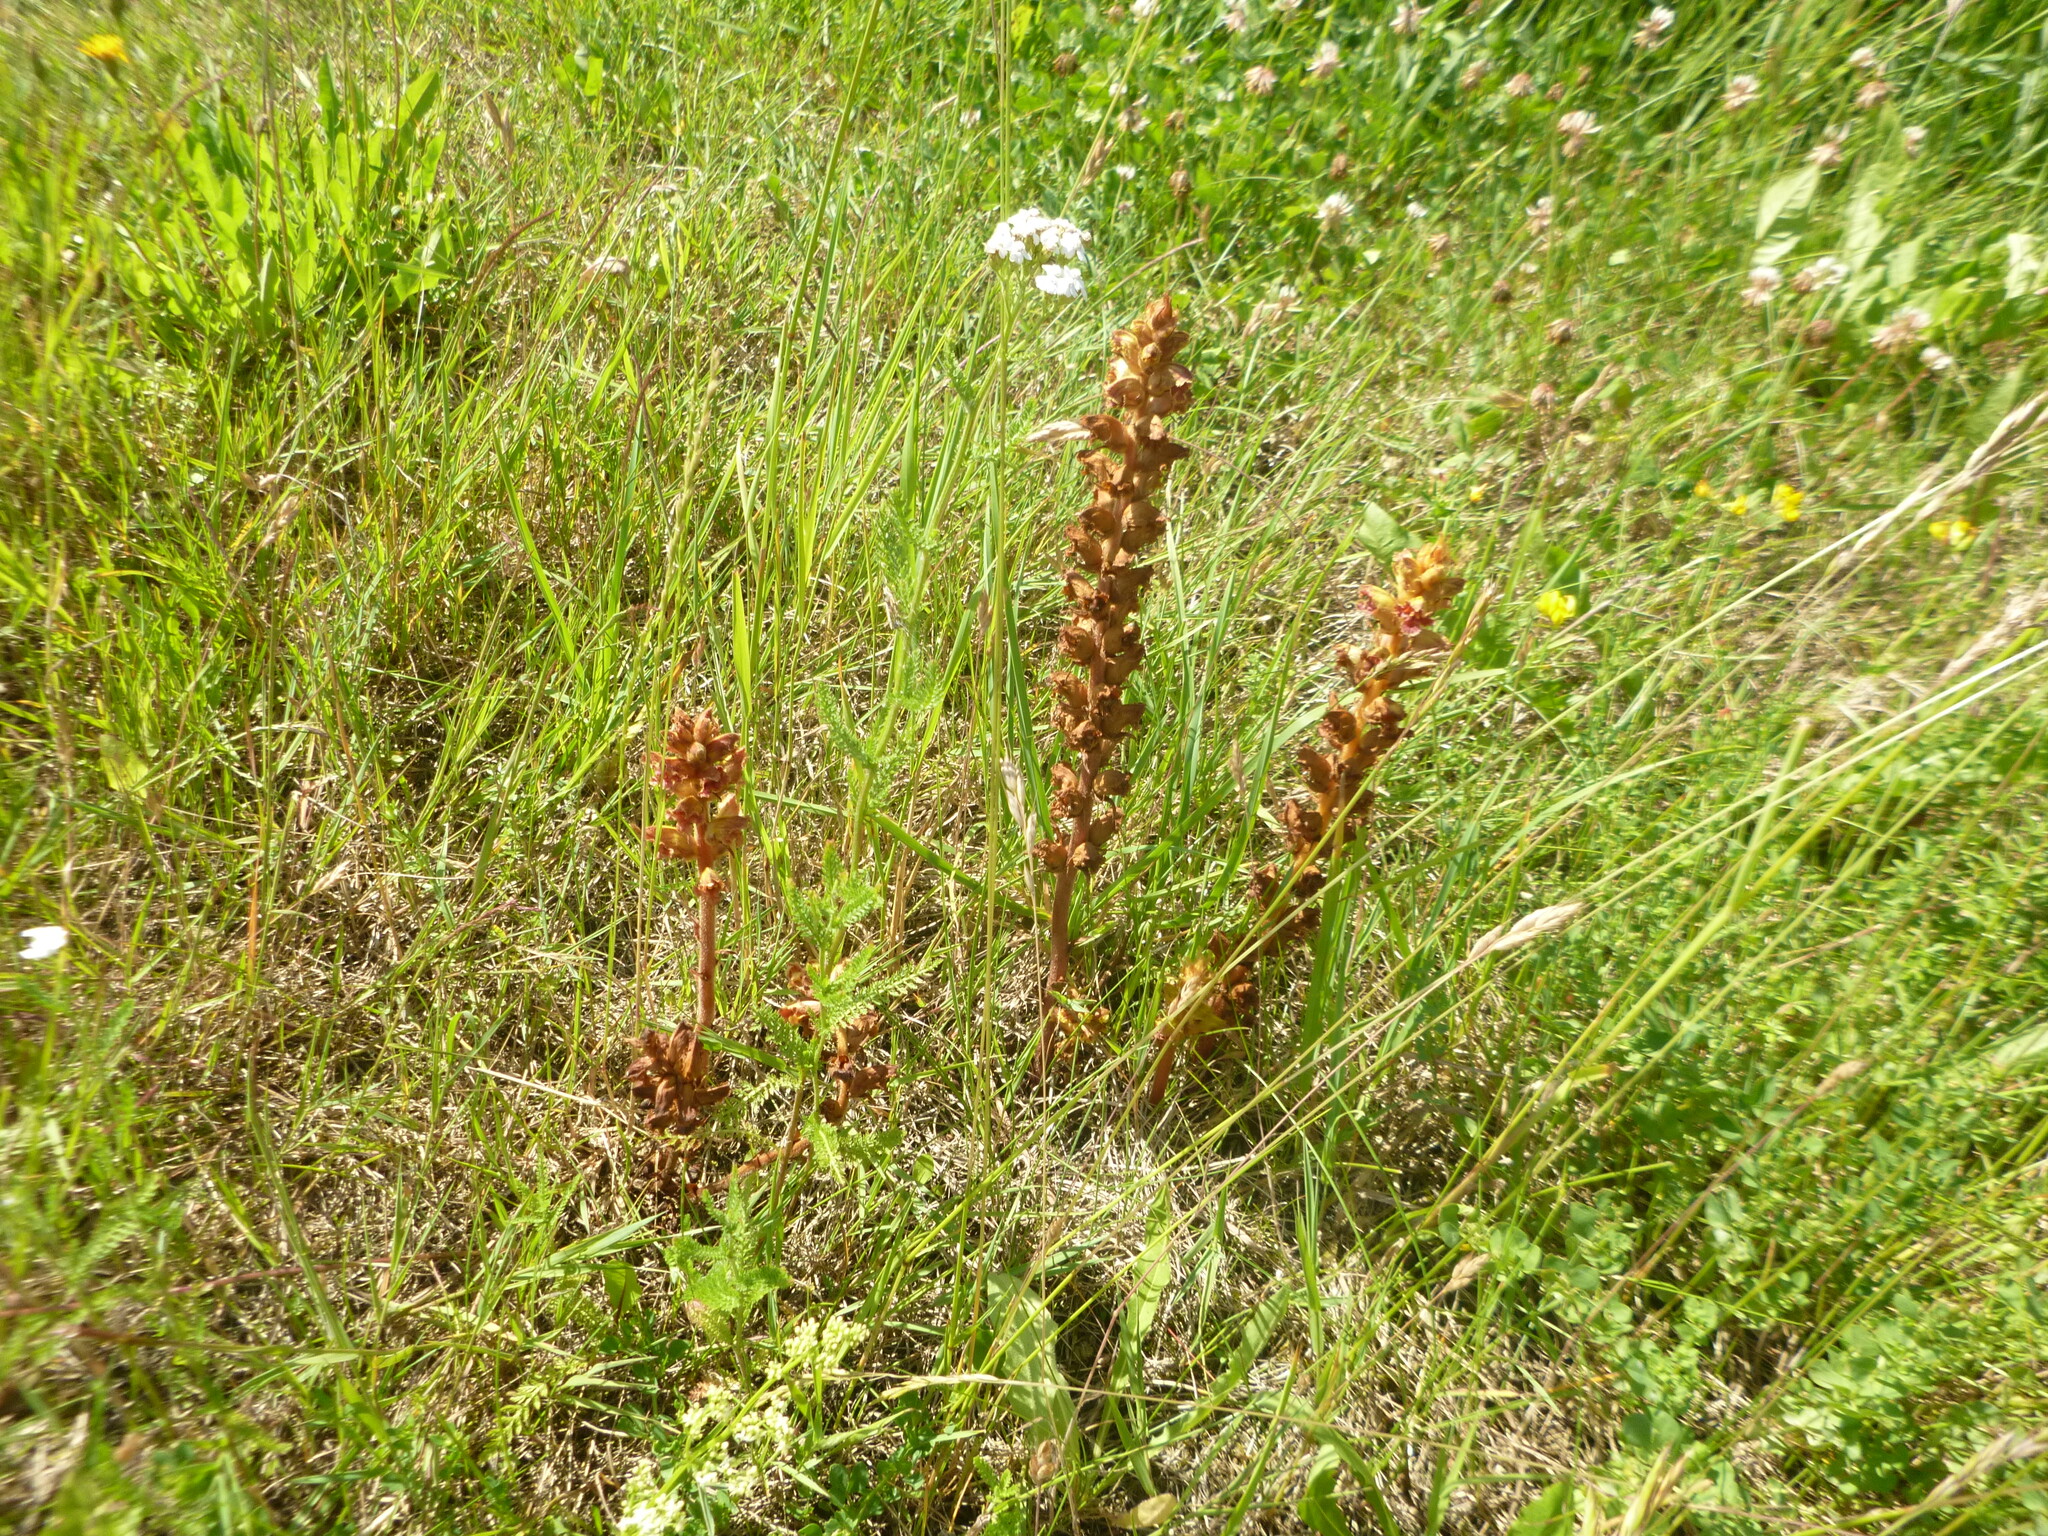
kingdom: Plantae
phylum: Tracheophyta
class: Magnoliopsida
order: Lamiales
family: Orobanchaceae
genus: Orobanche
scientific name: Orobanche gracilis
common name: Slender broomrape
